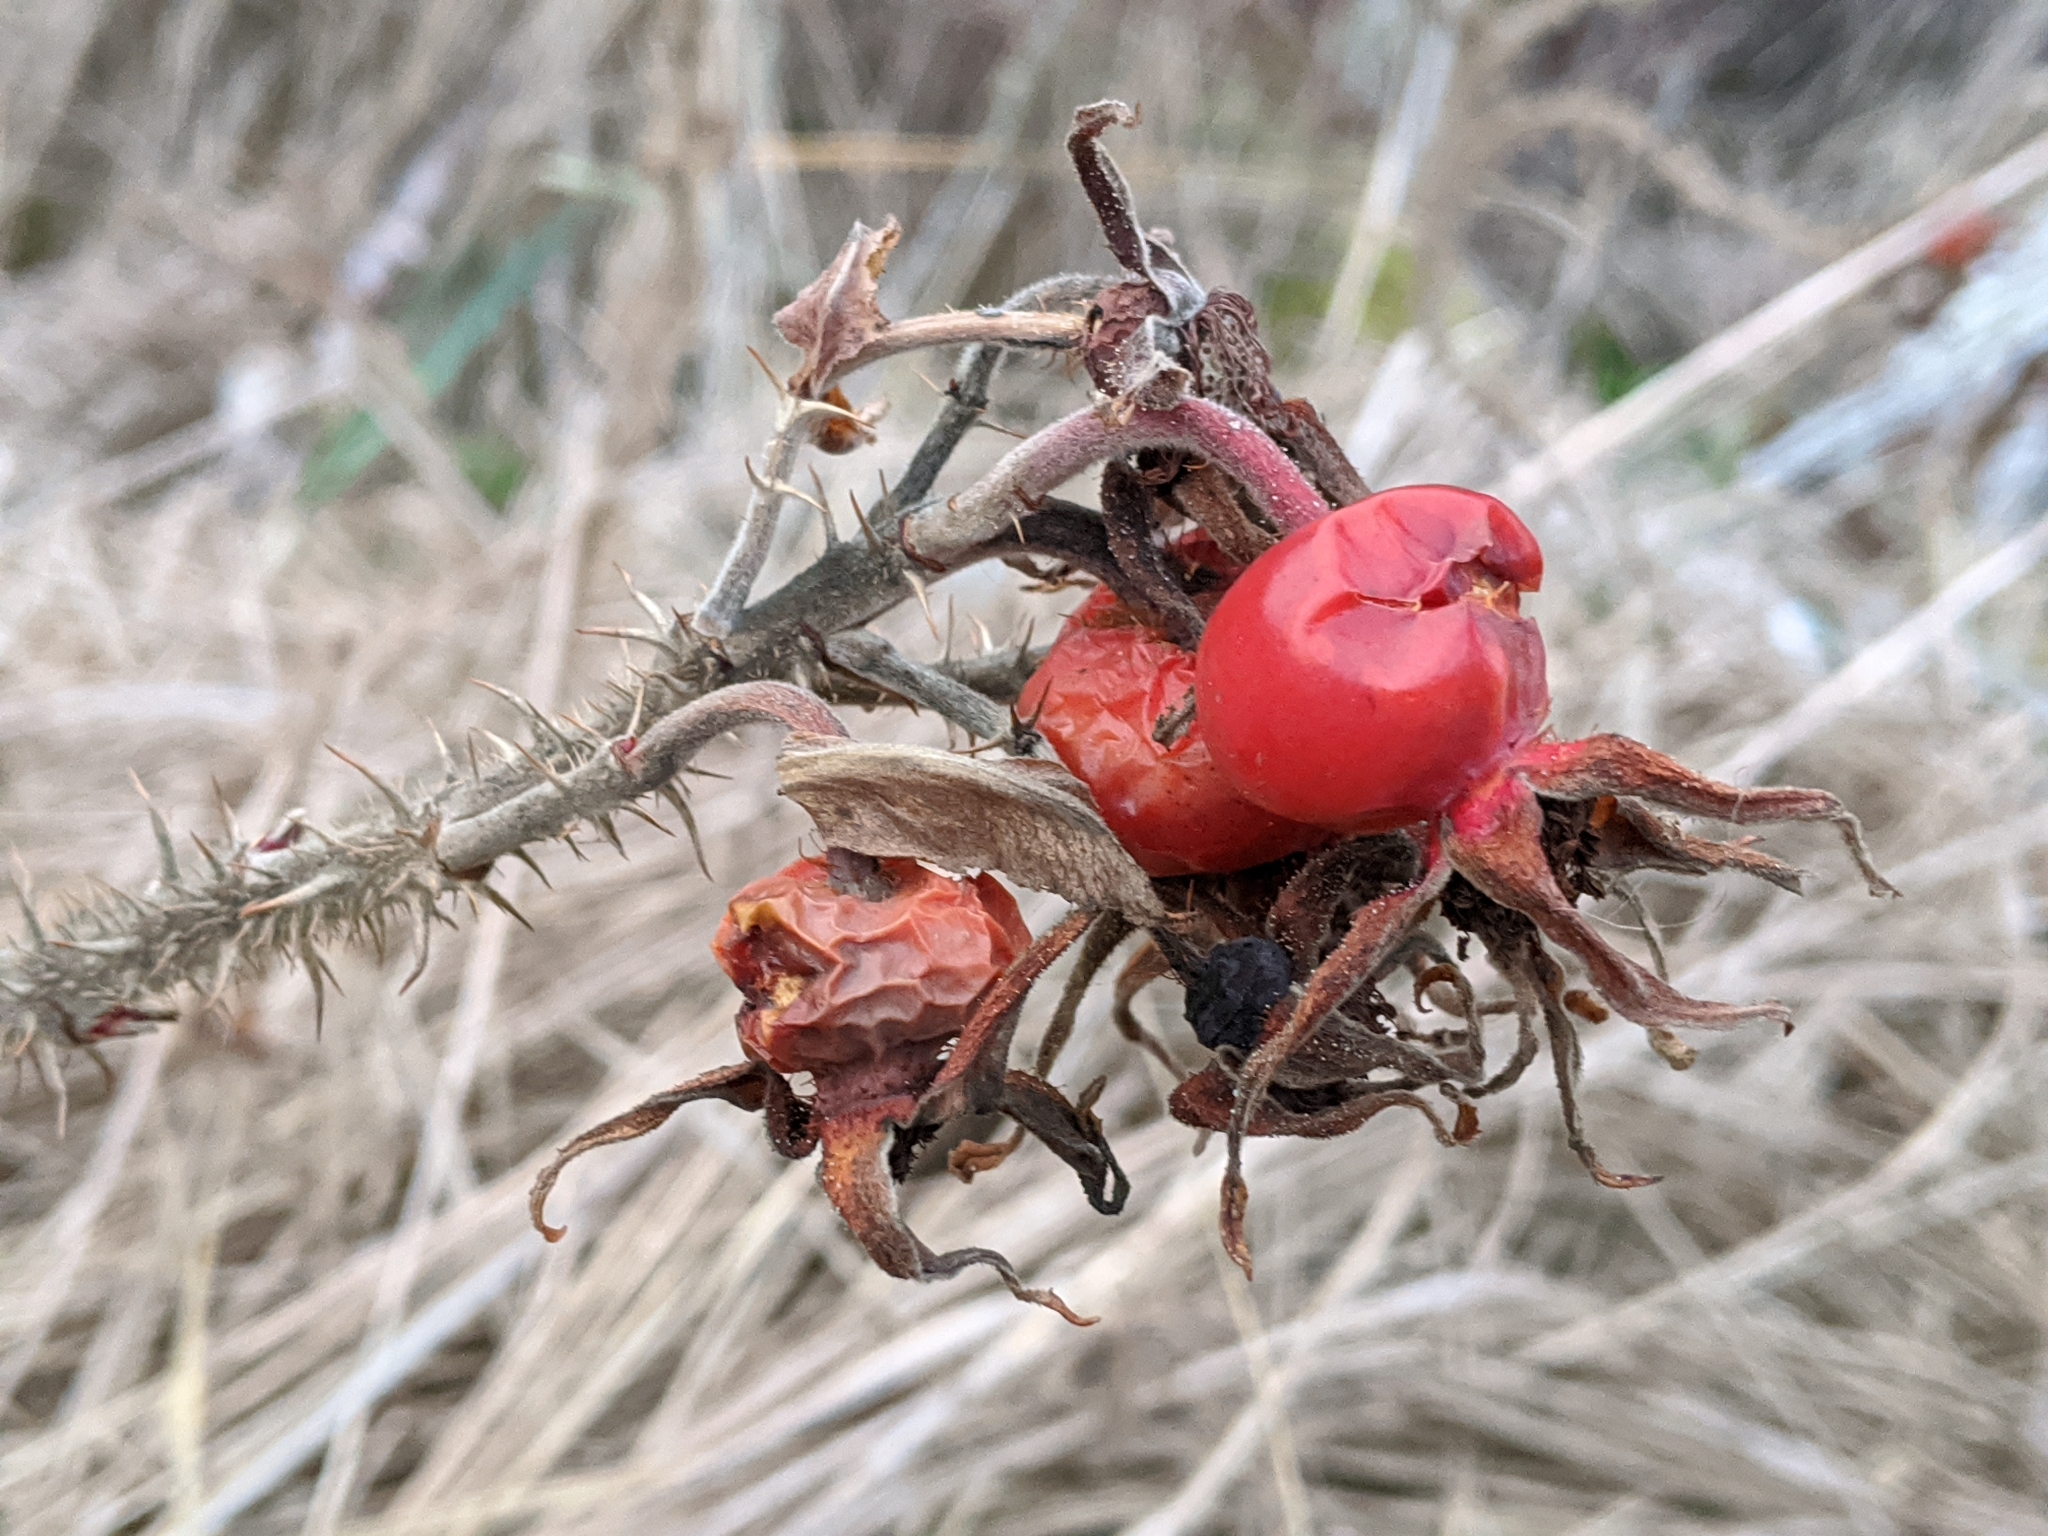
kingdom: Plantae
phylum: Tracheophyta
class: Magnoliopsida
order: Rosales
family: Rosaceae
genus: Rosa
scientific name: Rosa rugosa
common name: Japanese rose
